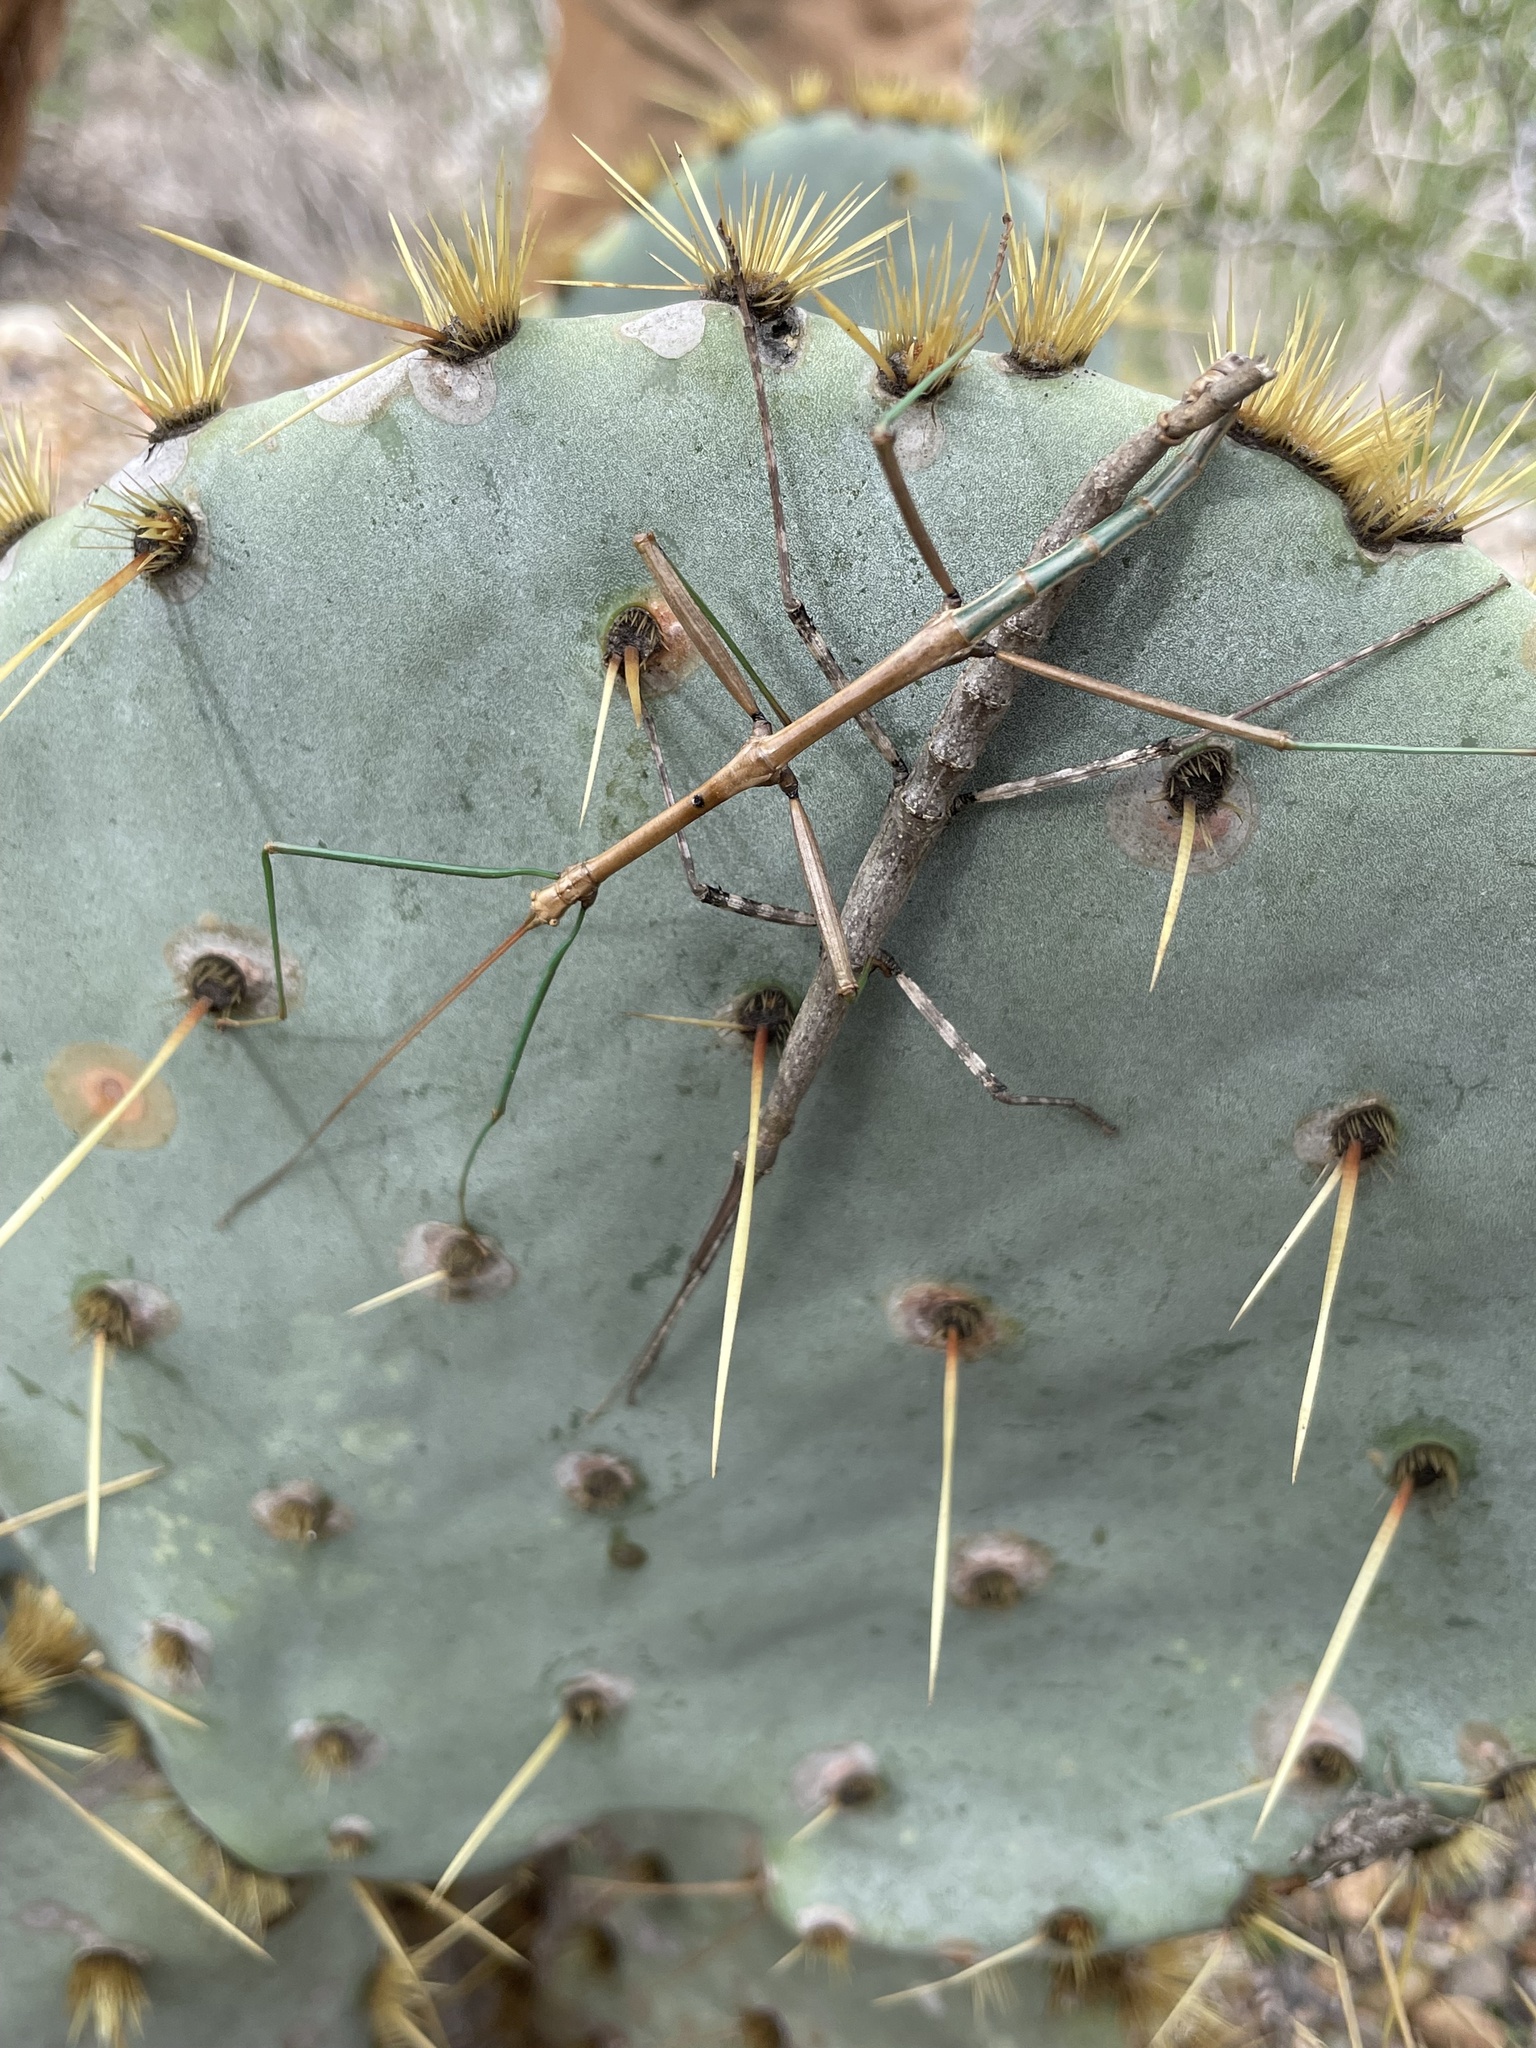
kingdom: Animalia
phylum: Arthropoda
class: Insecta
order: Phasmida
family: Diapheromeridae
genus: Megaphasma
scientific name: Megaphasma denticrus
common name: Giant walkingstick
